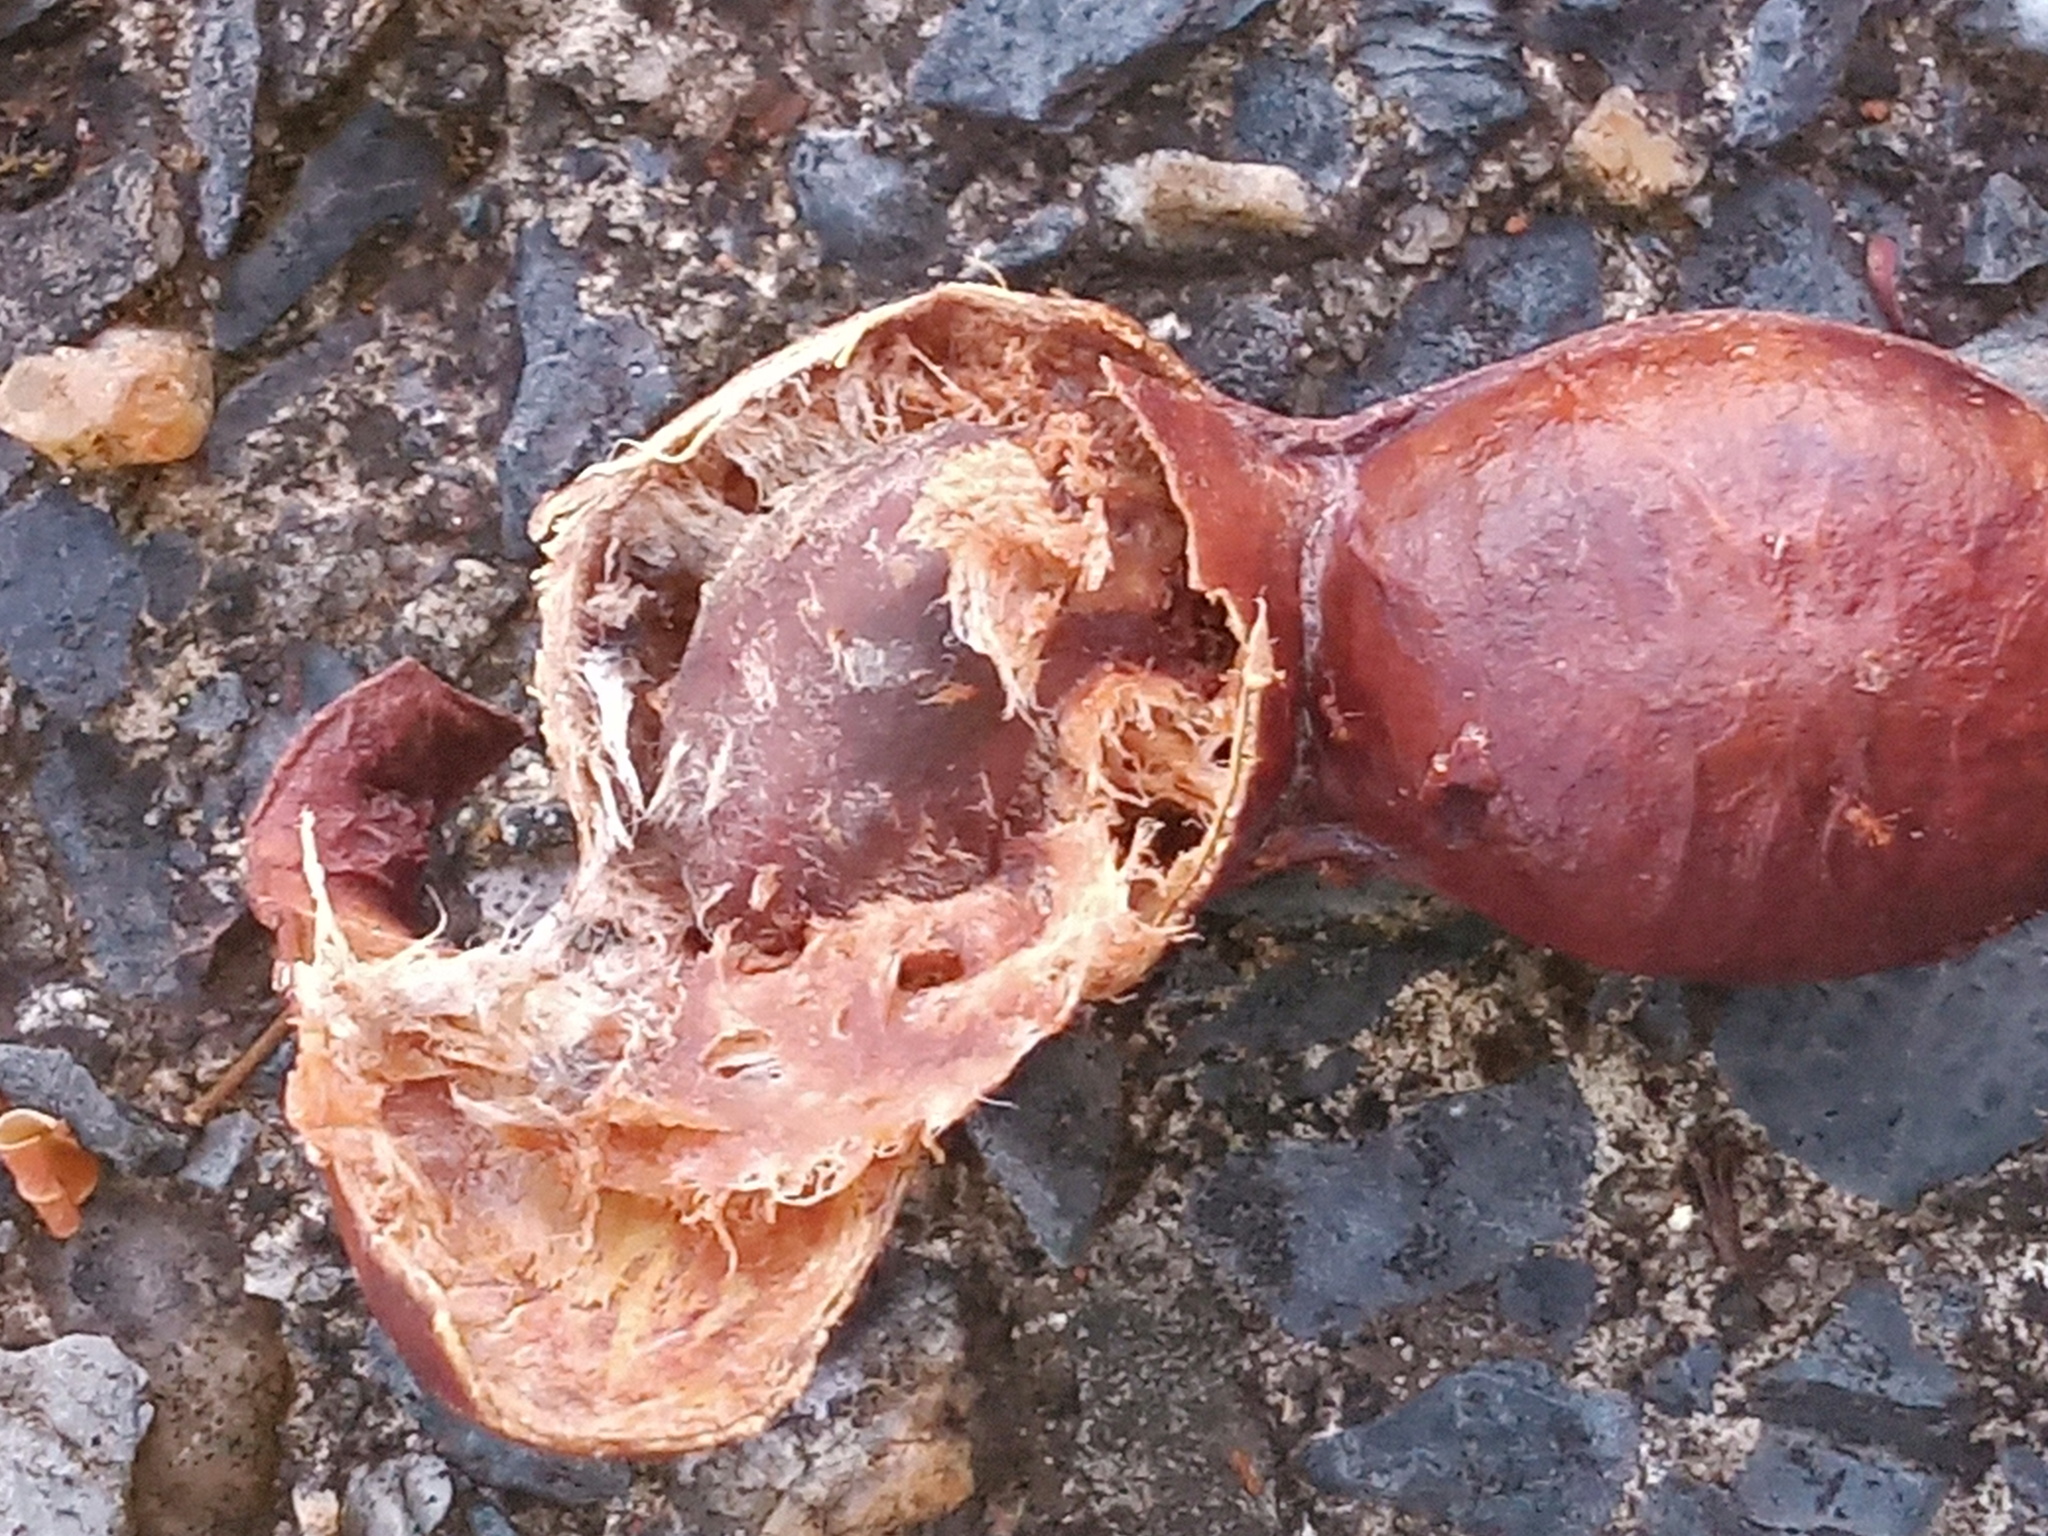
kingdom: Plantae
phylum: Tracheophyta
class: Magnoliopsida
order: Fabales
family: Fabaceae
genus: Inga
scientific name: Inga cylindrica
